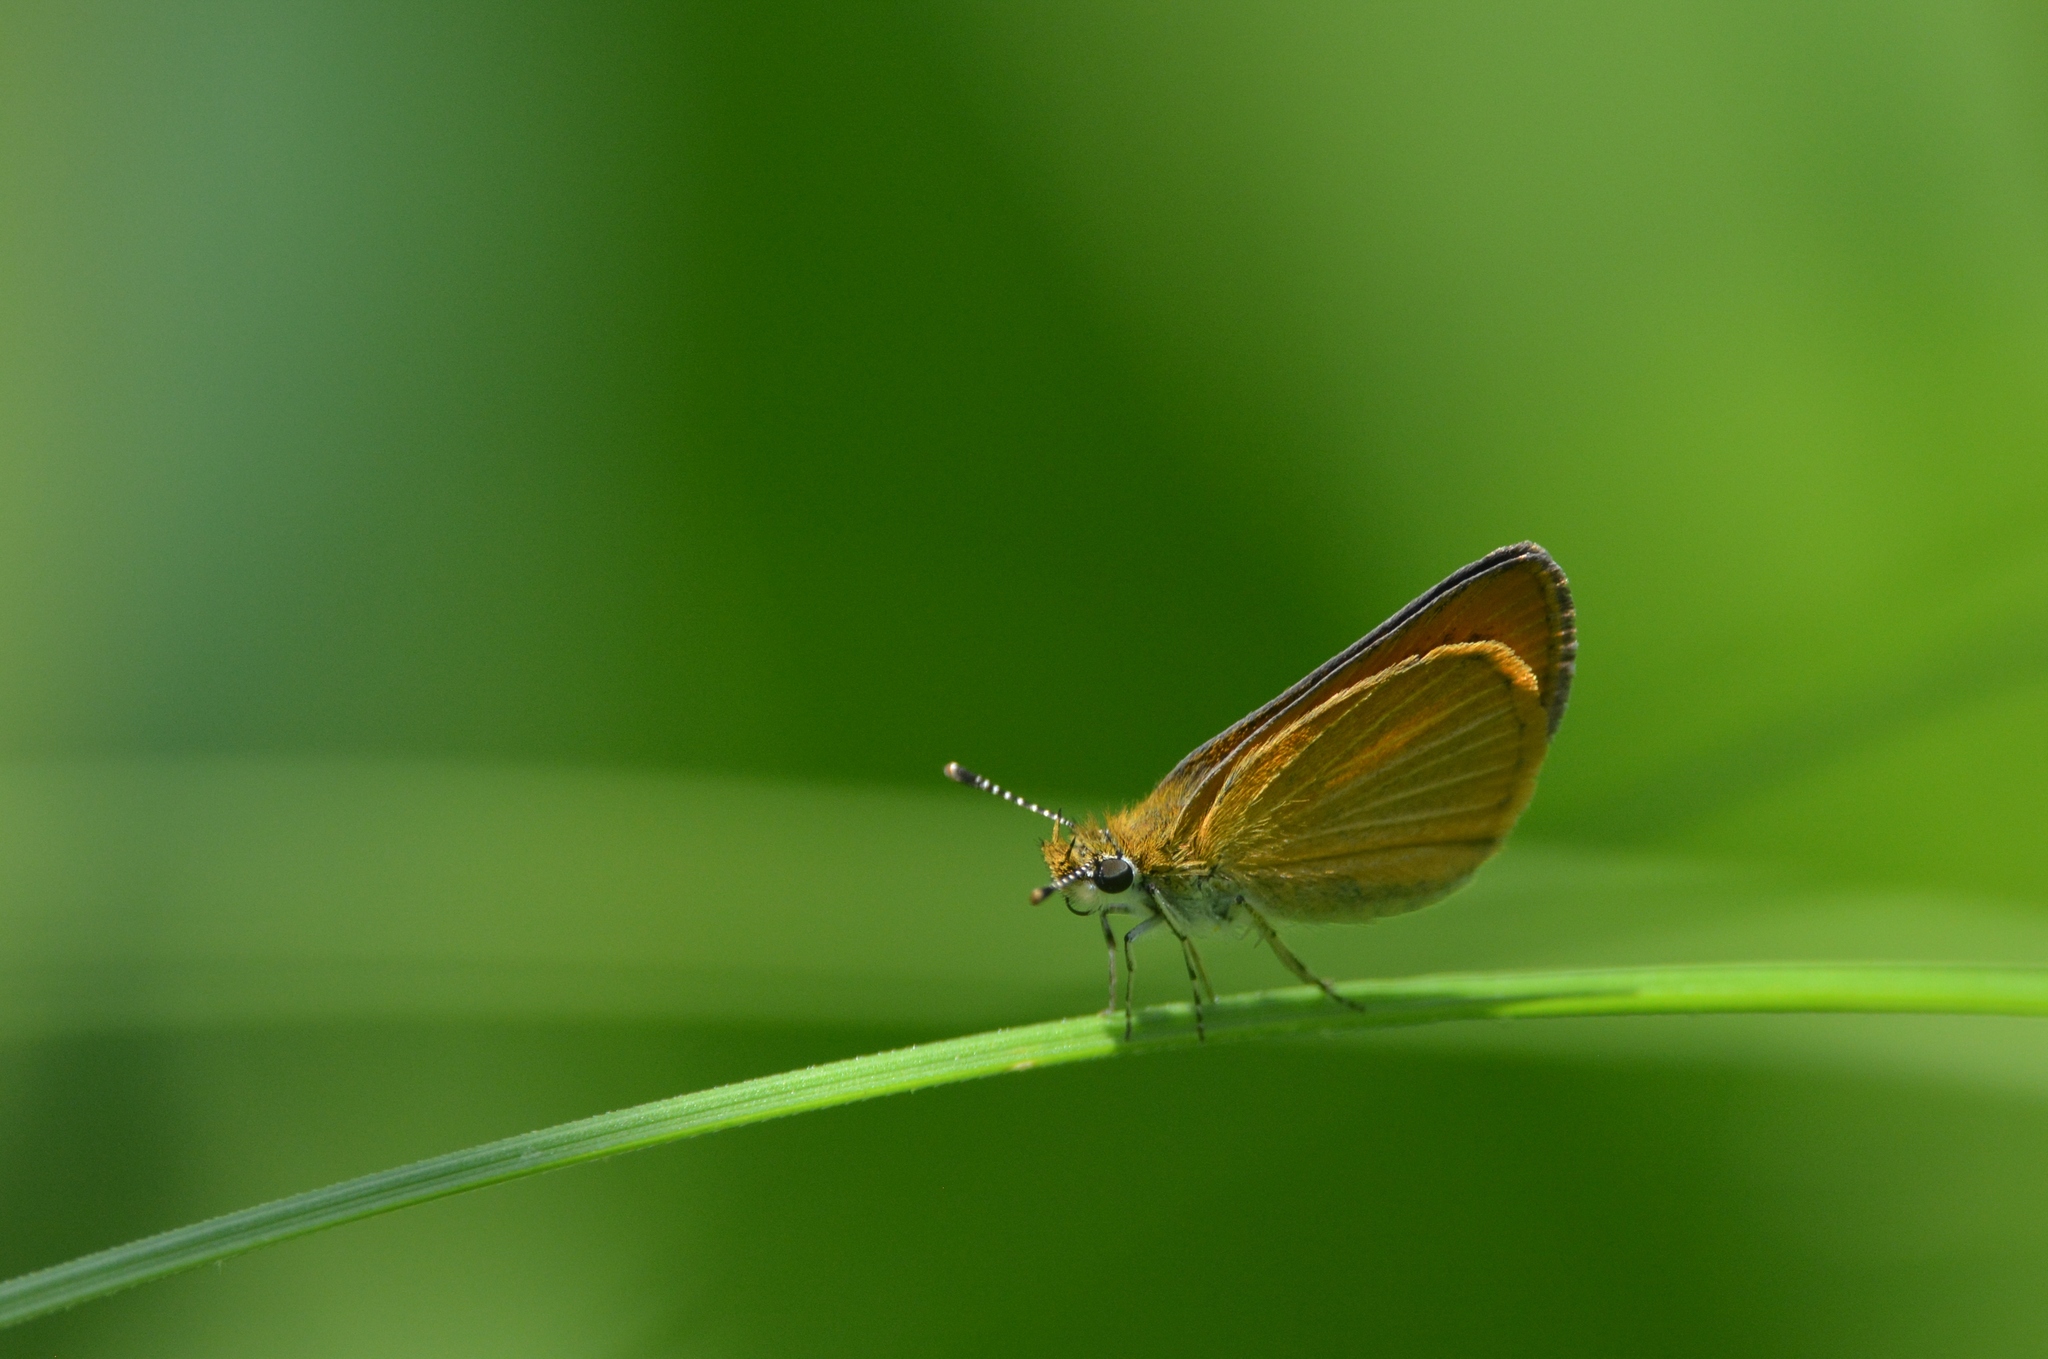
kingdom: Animalia
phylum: Arthropoda
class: Insecta
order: Lepidoptera
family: Hesperiidae
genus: Ancyloxypha
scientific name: Ancyloxypha numitor
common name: Least skipper
